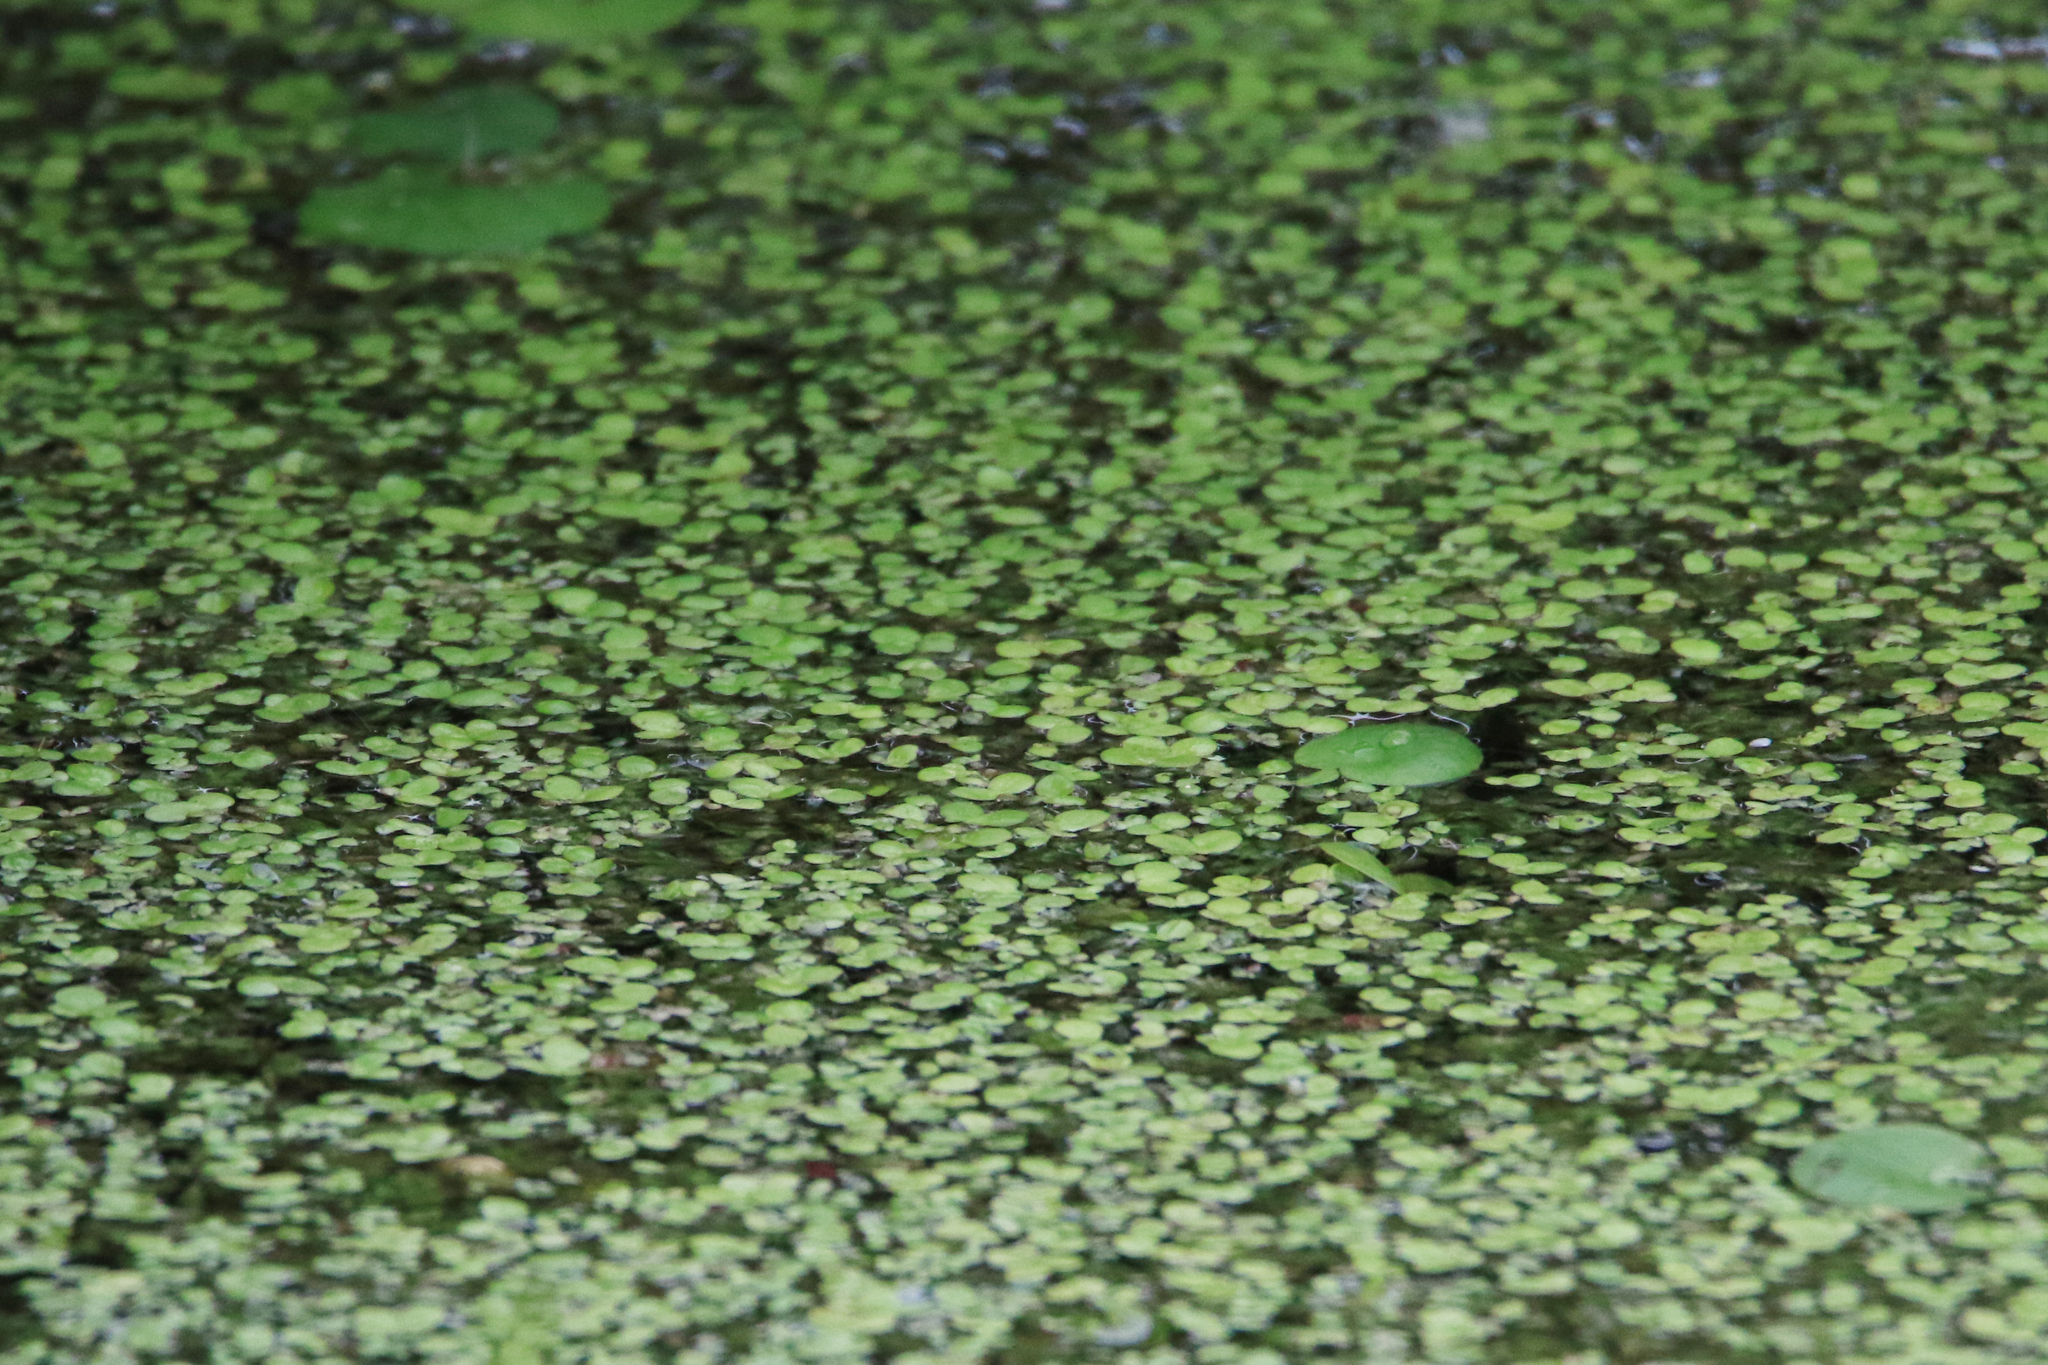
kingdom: Plantae
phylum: Tracheophyta
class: Liliopsida
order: Alismatales
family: Araceae
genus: Lemna
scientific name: Lemna minor
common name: Common duckweed
